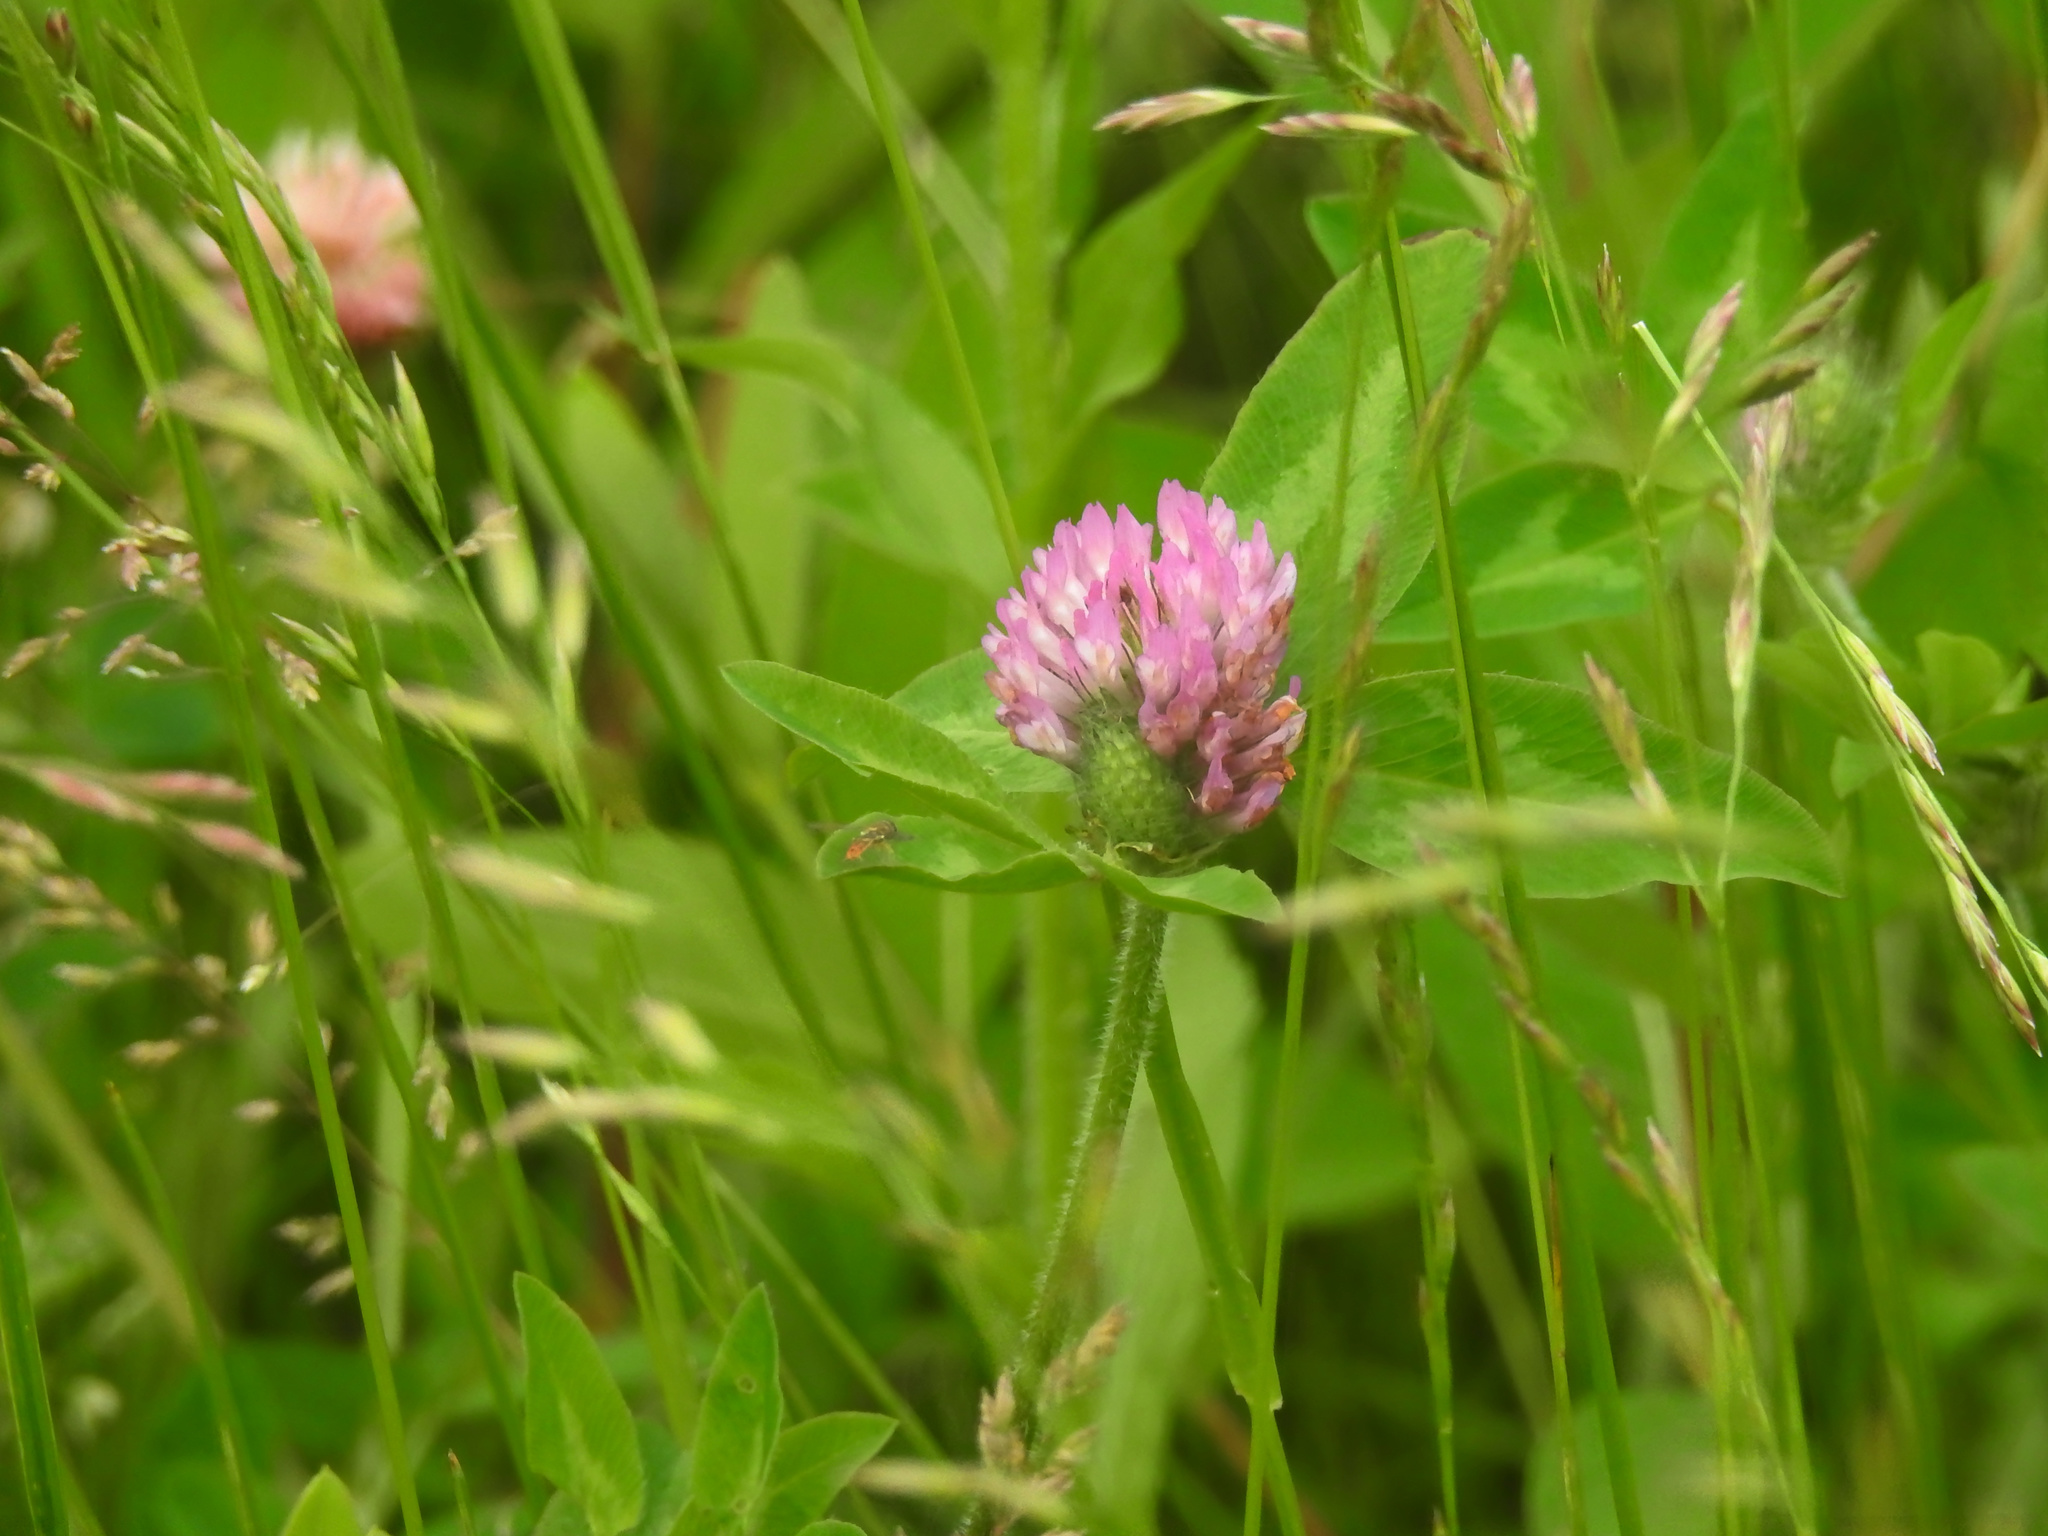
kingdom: Plantae
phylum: Tracheophyta
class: Magnoliopsida
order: Fabales
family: Fabaceae
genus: Trifolium
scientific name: Trifolium pratense
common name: Red clover
